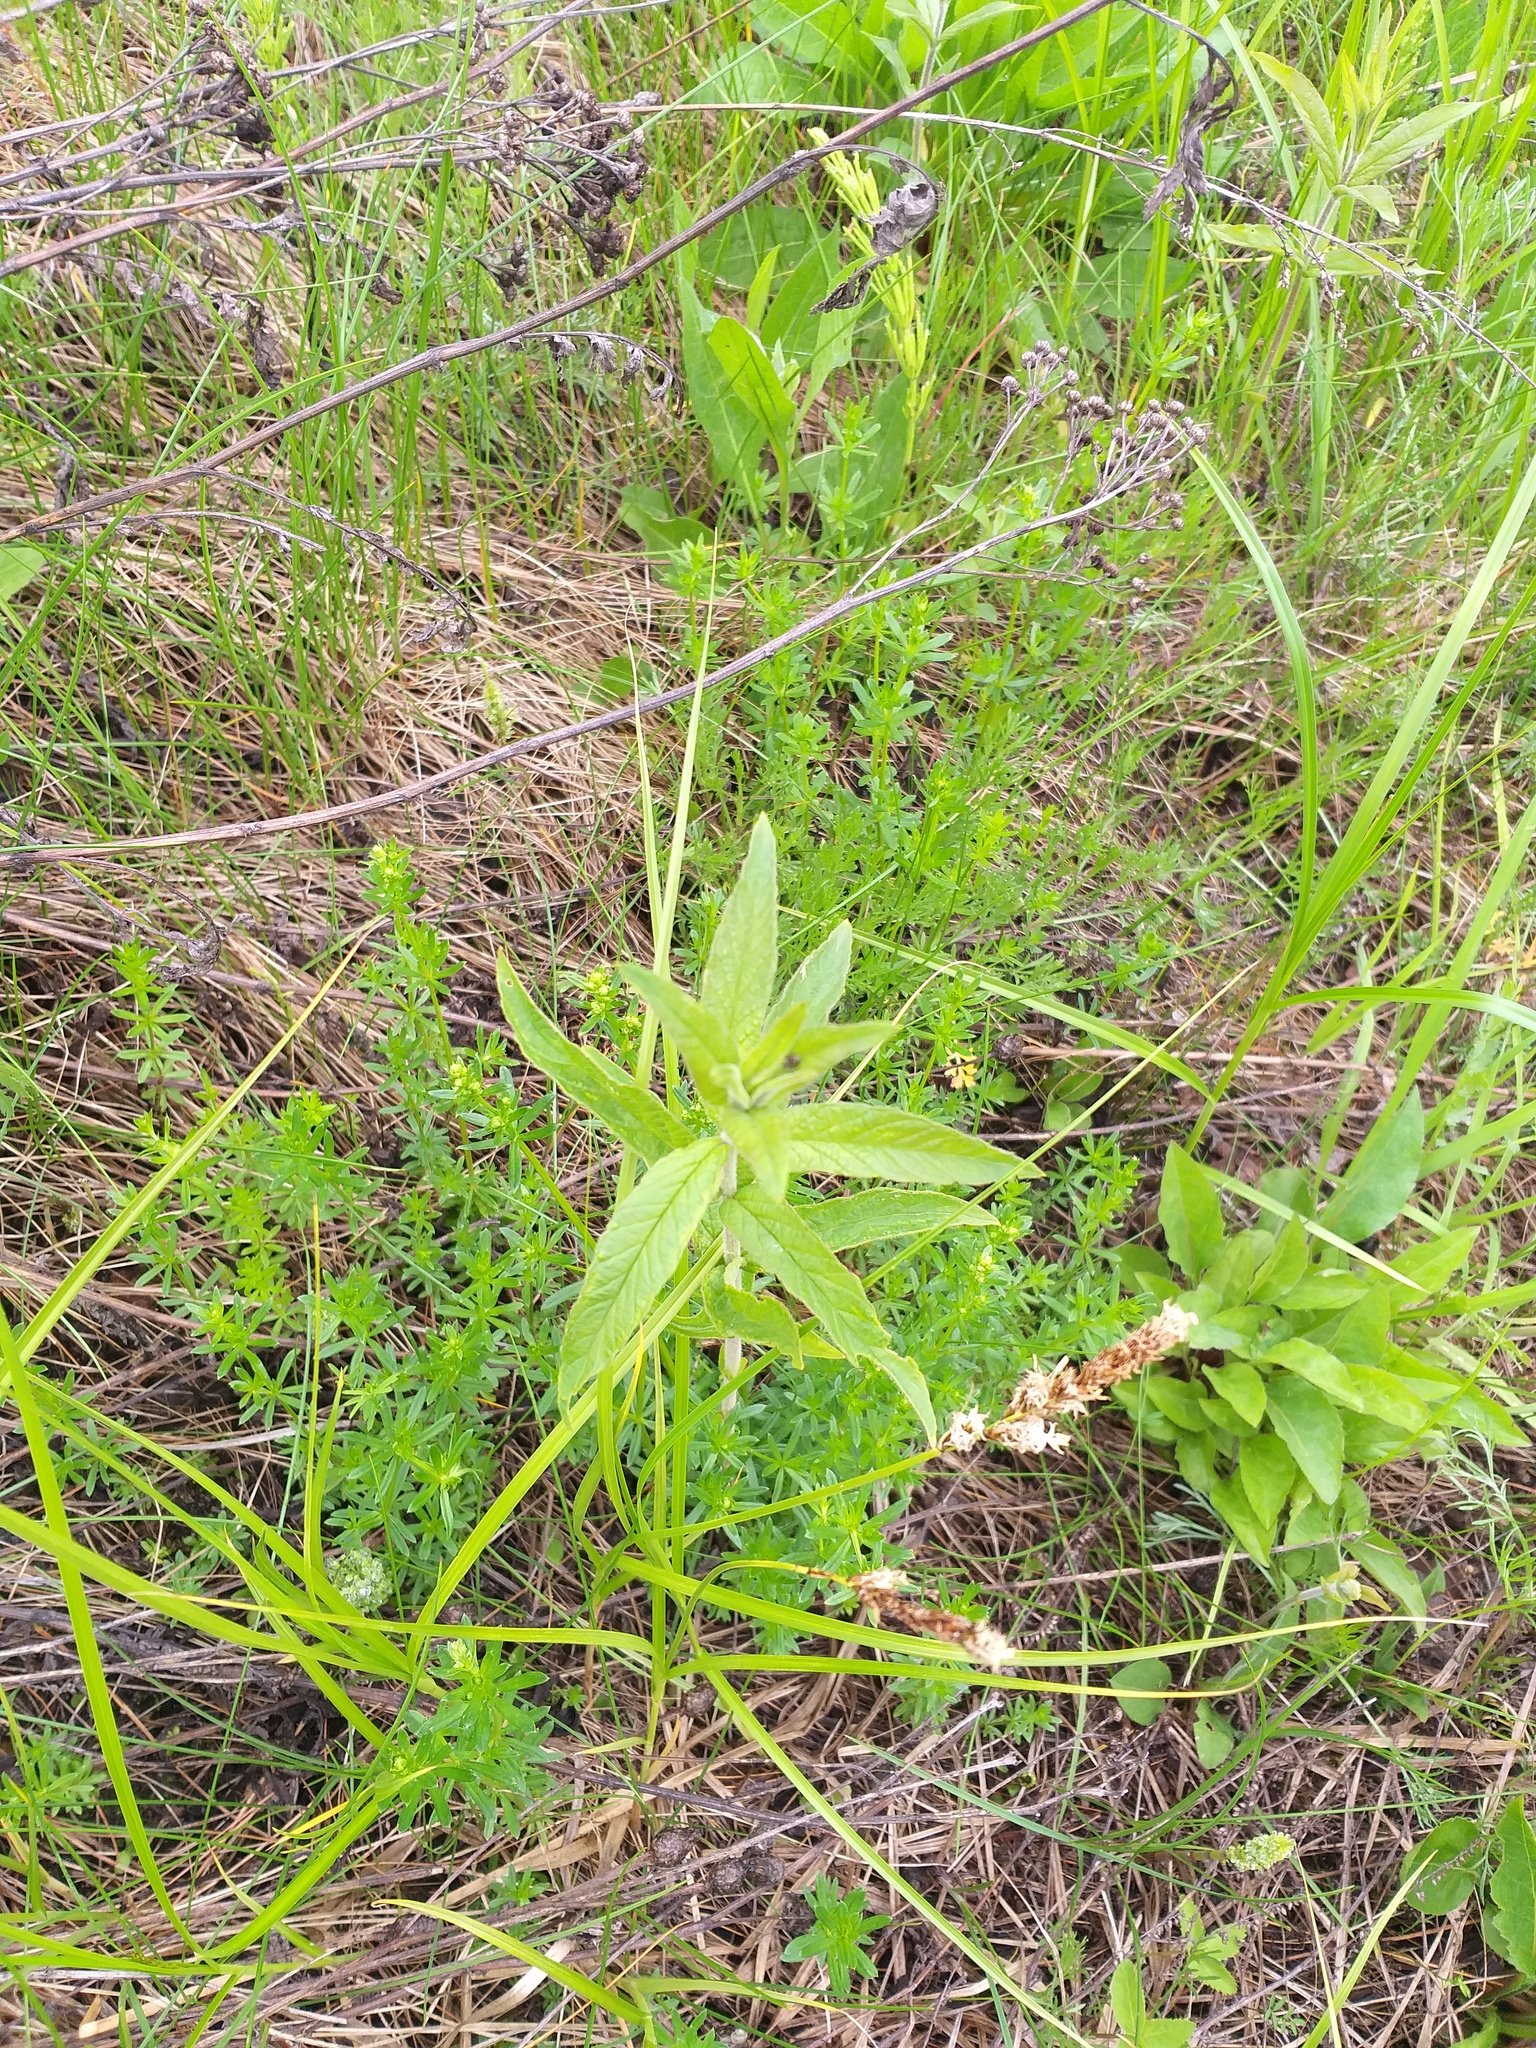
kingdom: Plantae
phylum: Tracheophyta
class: Magnoliopsida
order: Ericales
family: Primulaceae
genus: Lysimachia
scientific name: Lysimachia vulgaris
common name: Yellow loosestrife
